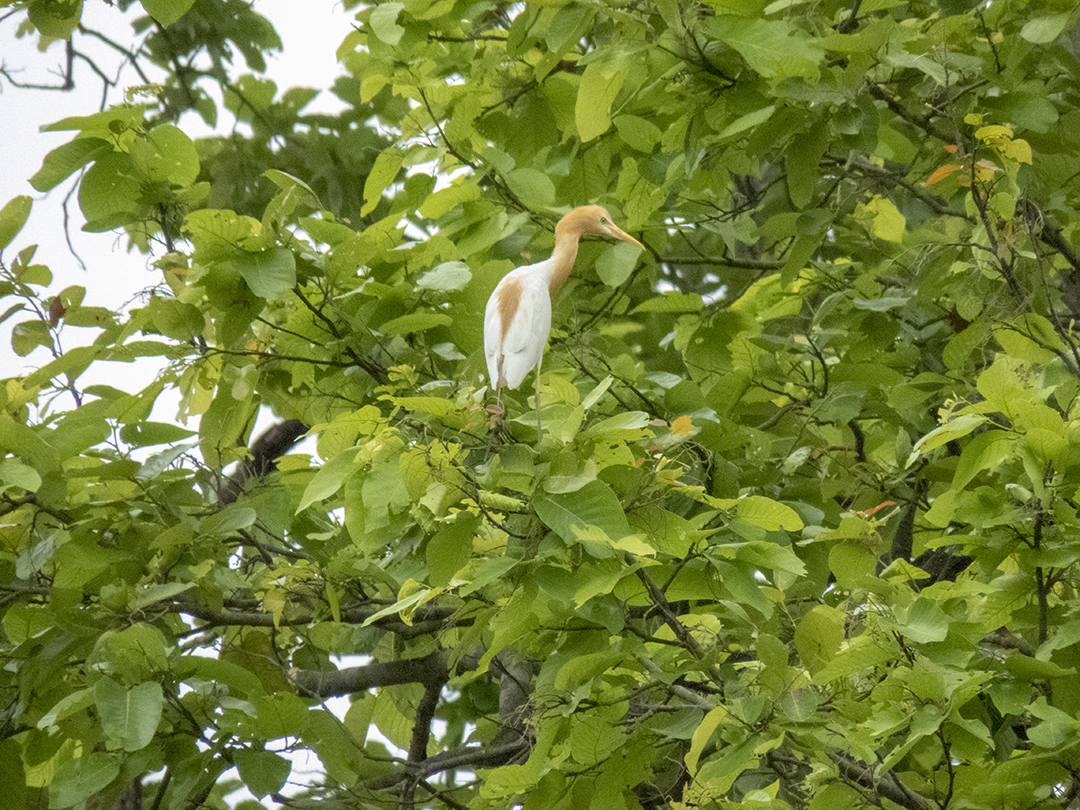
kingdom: Animalia
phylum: Chordata
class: Aves
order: Pelecaniformes
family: Ardeidae
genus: Bubulcus
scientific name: Bubulcus coromandus
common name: Eastern cattle egret
